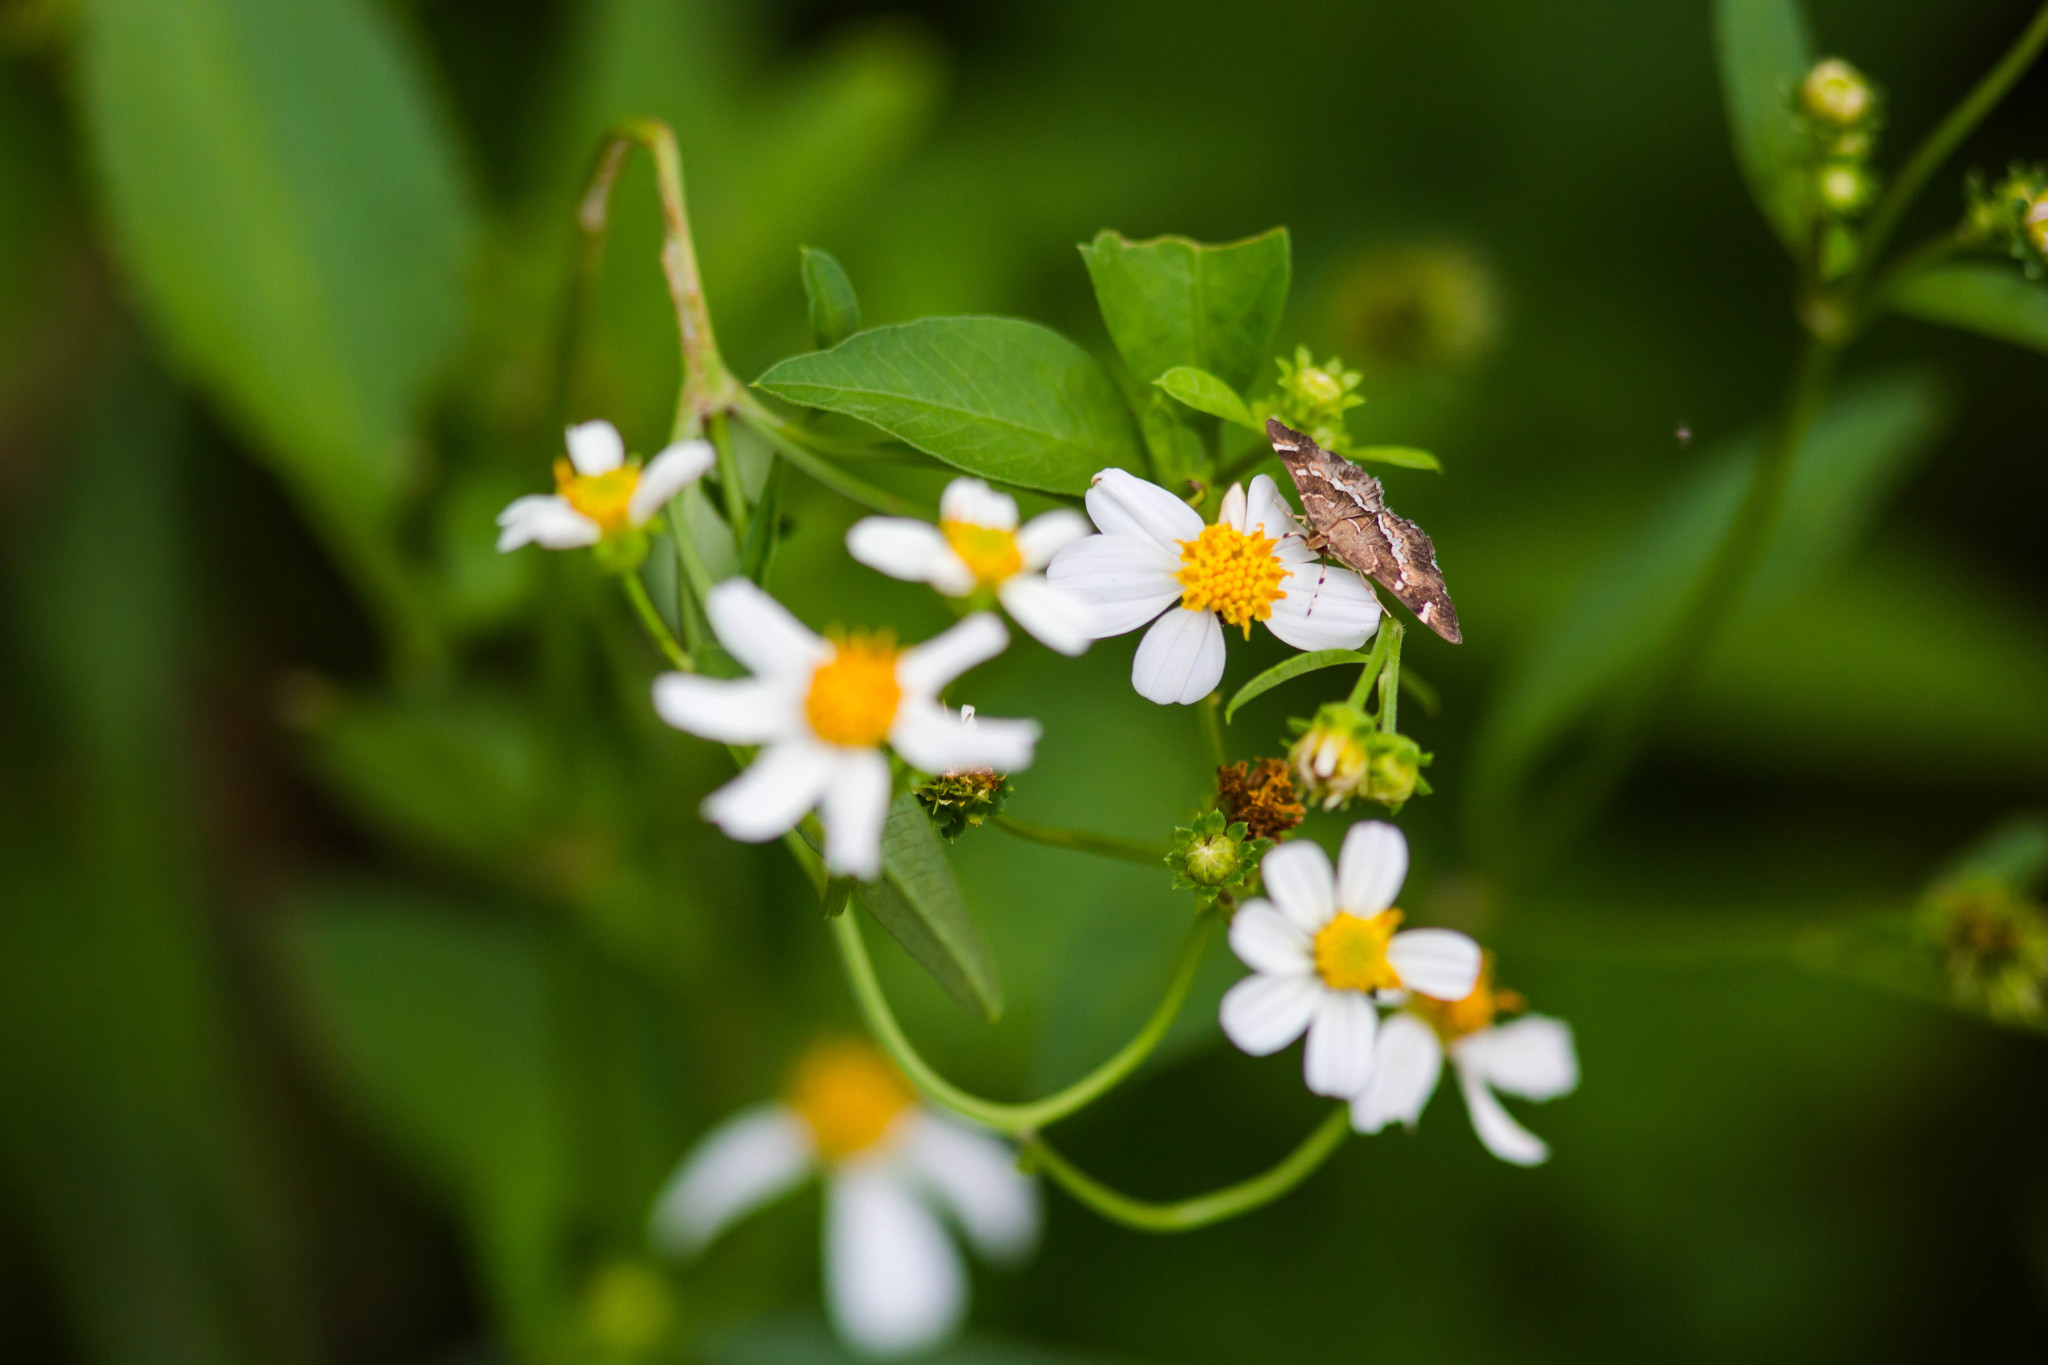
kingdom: Plantae
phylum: Tracheophyta
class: Magnoliopsida
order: Asterales
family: Asteraceae
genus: Bidens
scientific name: Bidens alba
